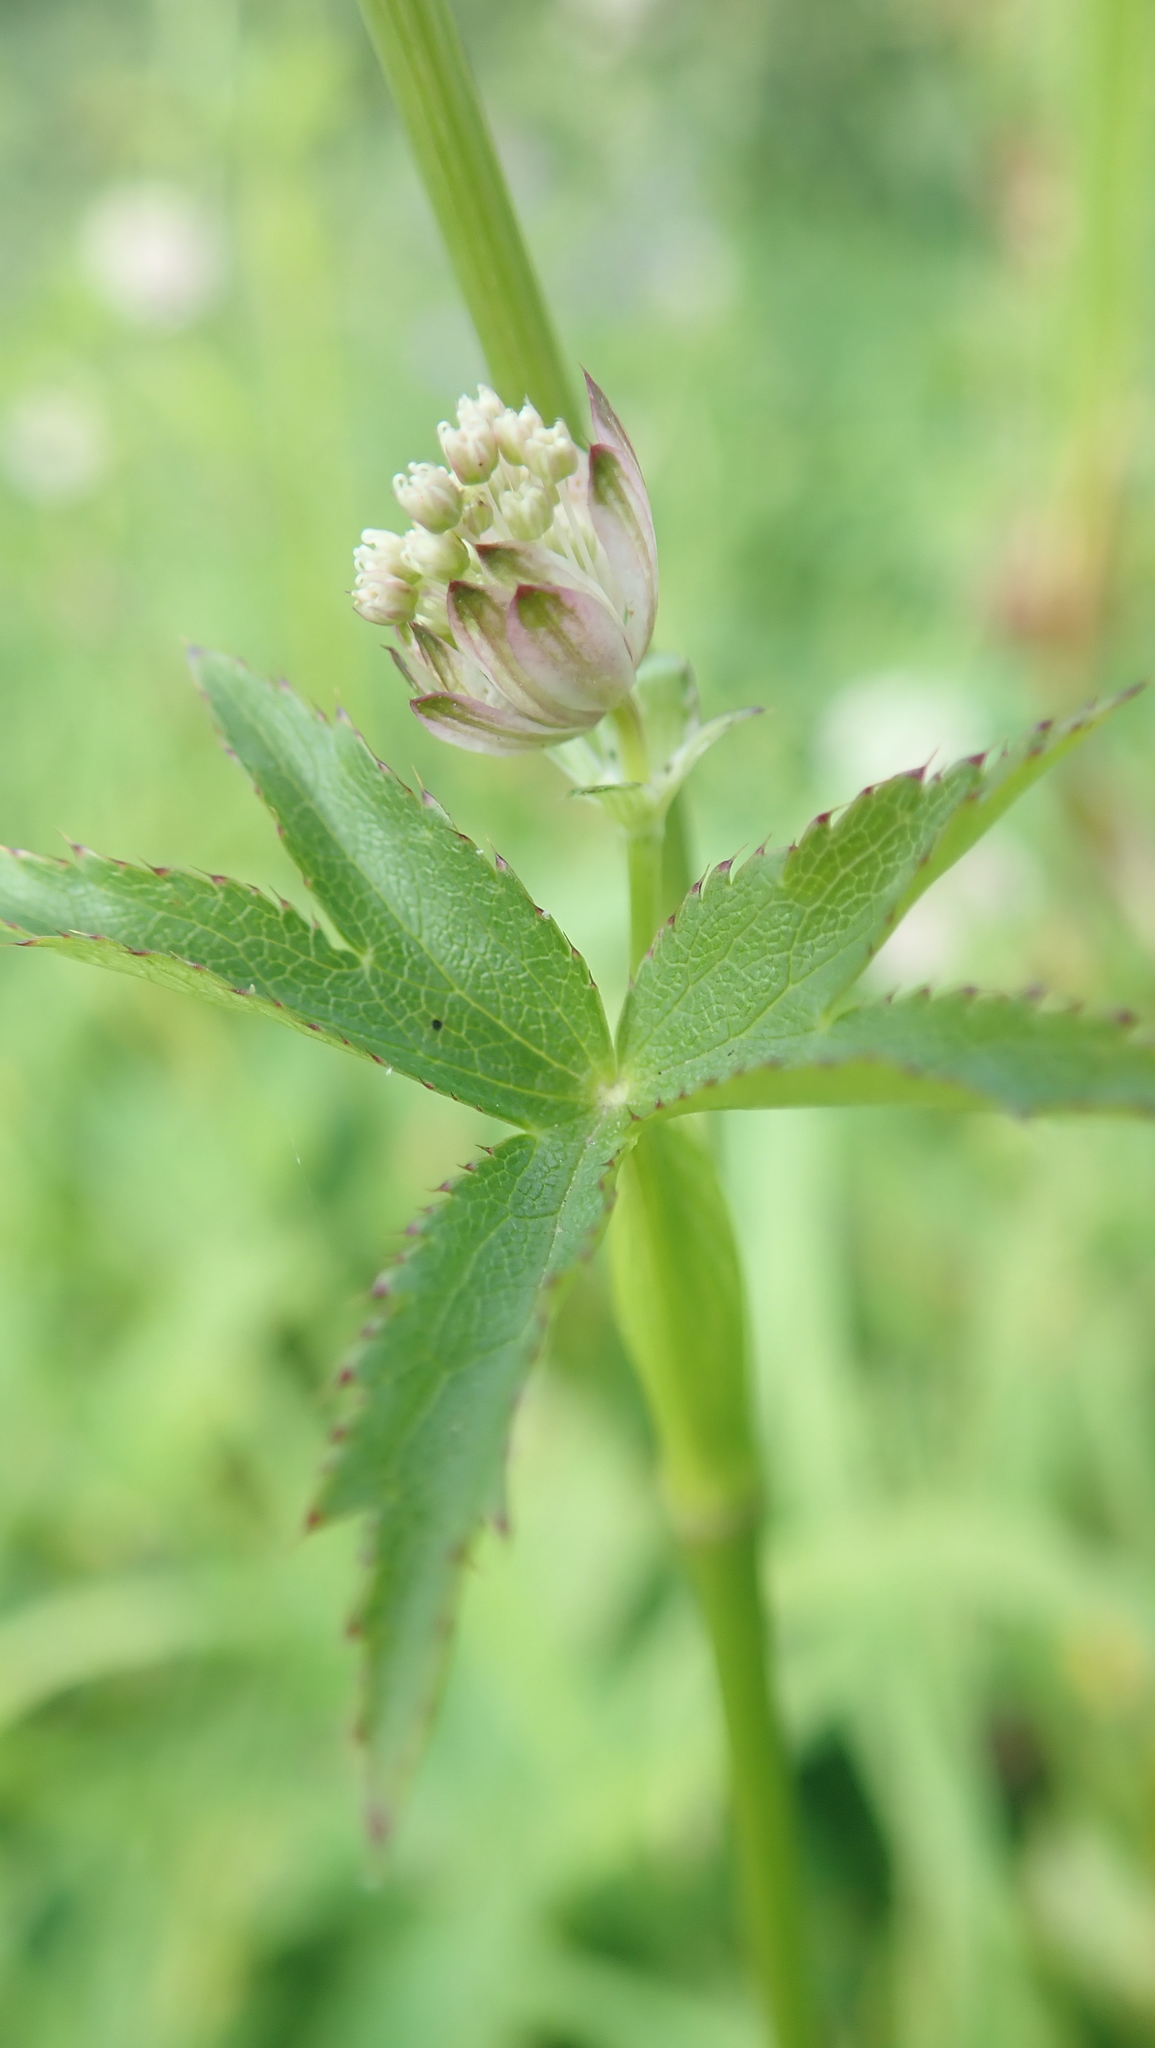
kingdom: Plantae
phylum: Tracheophyta
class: Magnoliopsida
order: Apiales
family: Apiaceae
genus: Astrantia
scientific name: Astrantia major
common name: Greater masterwort
